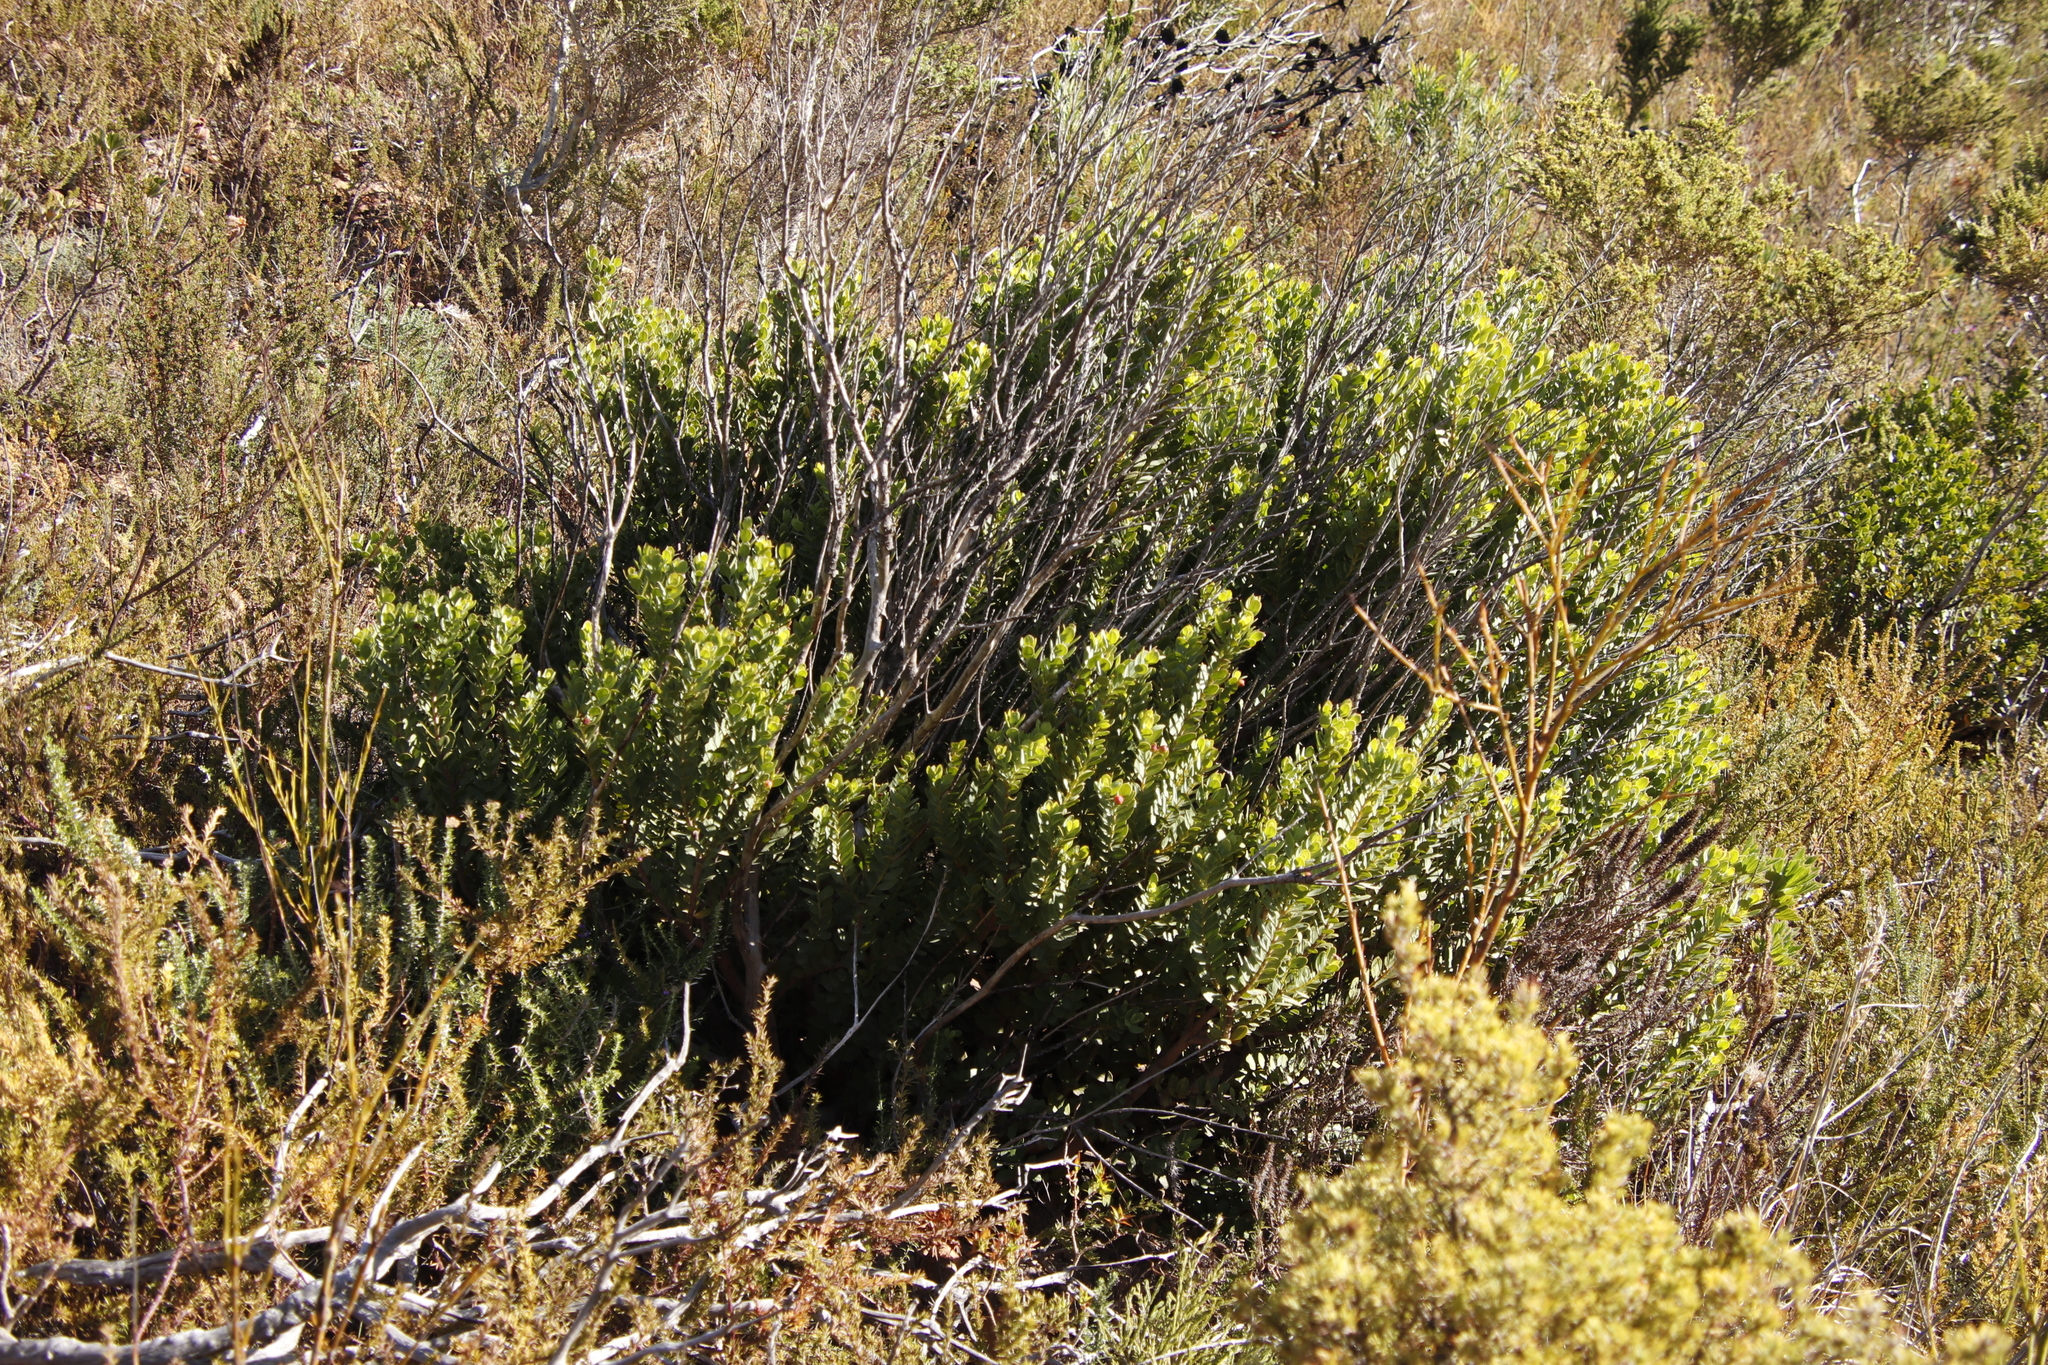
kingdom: Plantae
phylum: Tracheophyta
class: Magnoliopsida
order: Santalales
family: Santalaceae
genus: Osyris
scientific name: Osyris compressa
